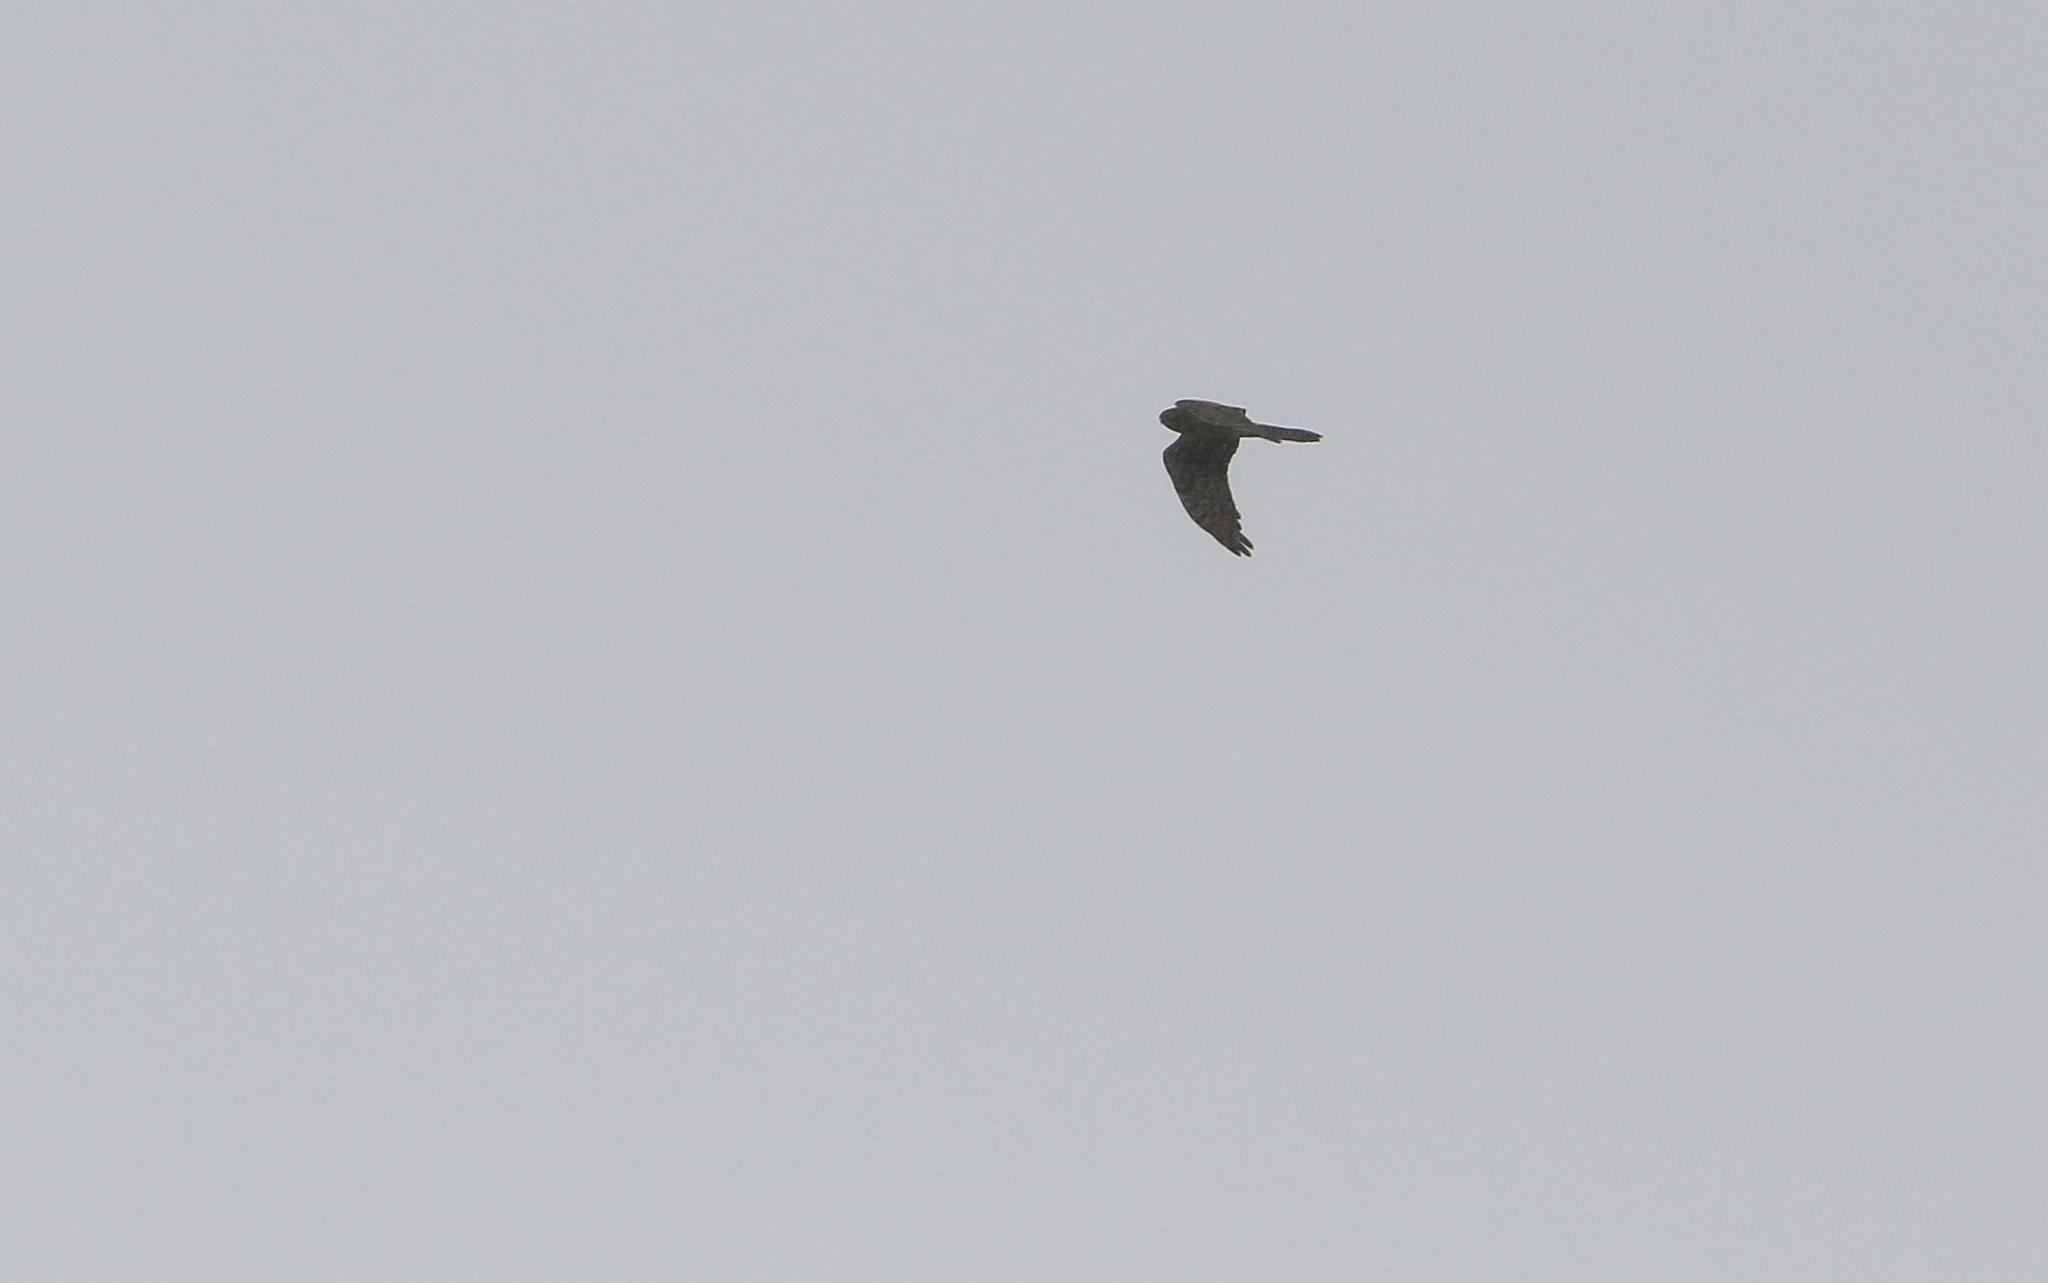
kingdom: Animalia
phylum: Chordata
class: Aves
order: Accipitriformes
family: Accipitridae
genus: Circus
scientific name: Circus pygargus
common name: Montagu's harrier
